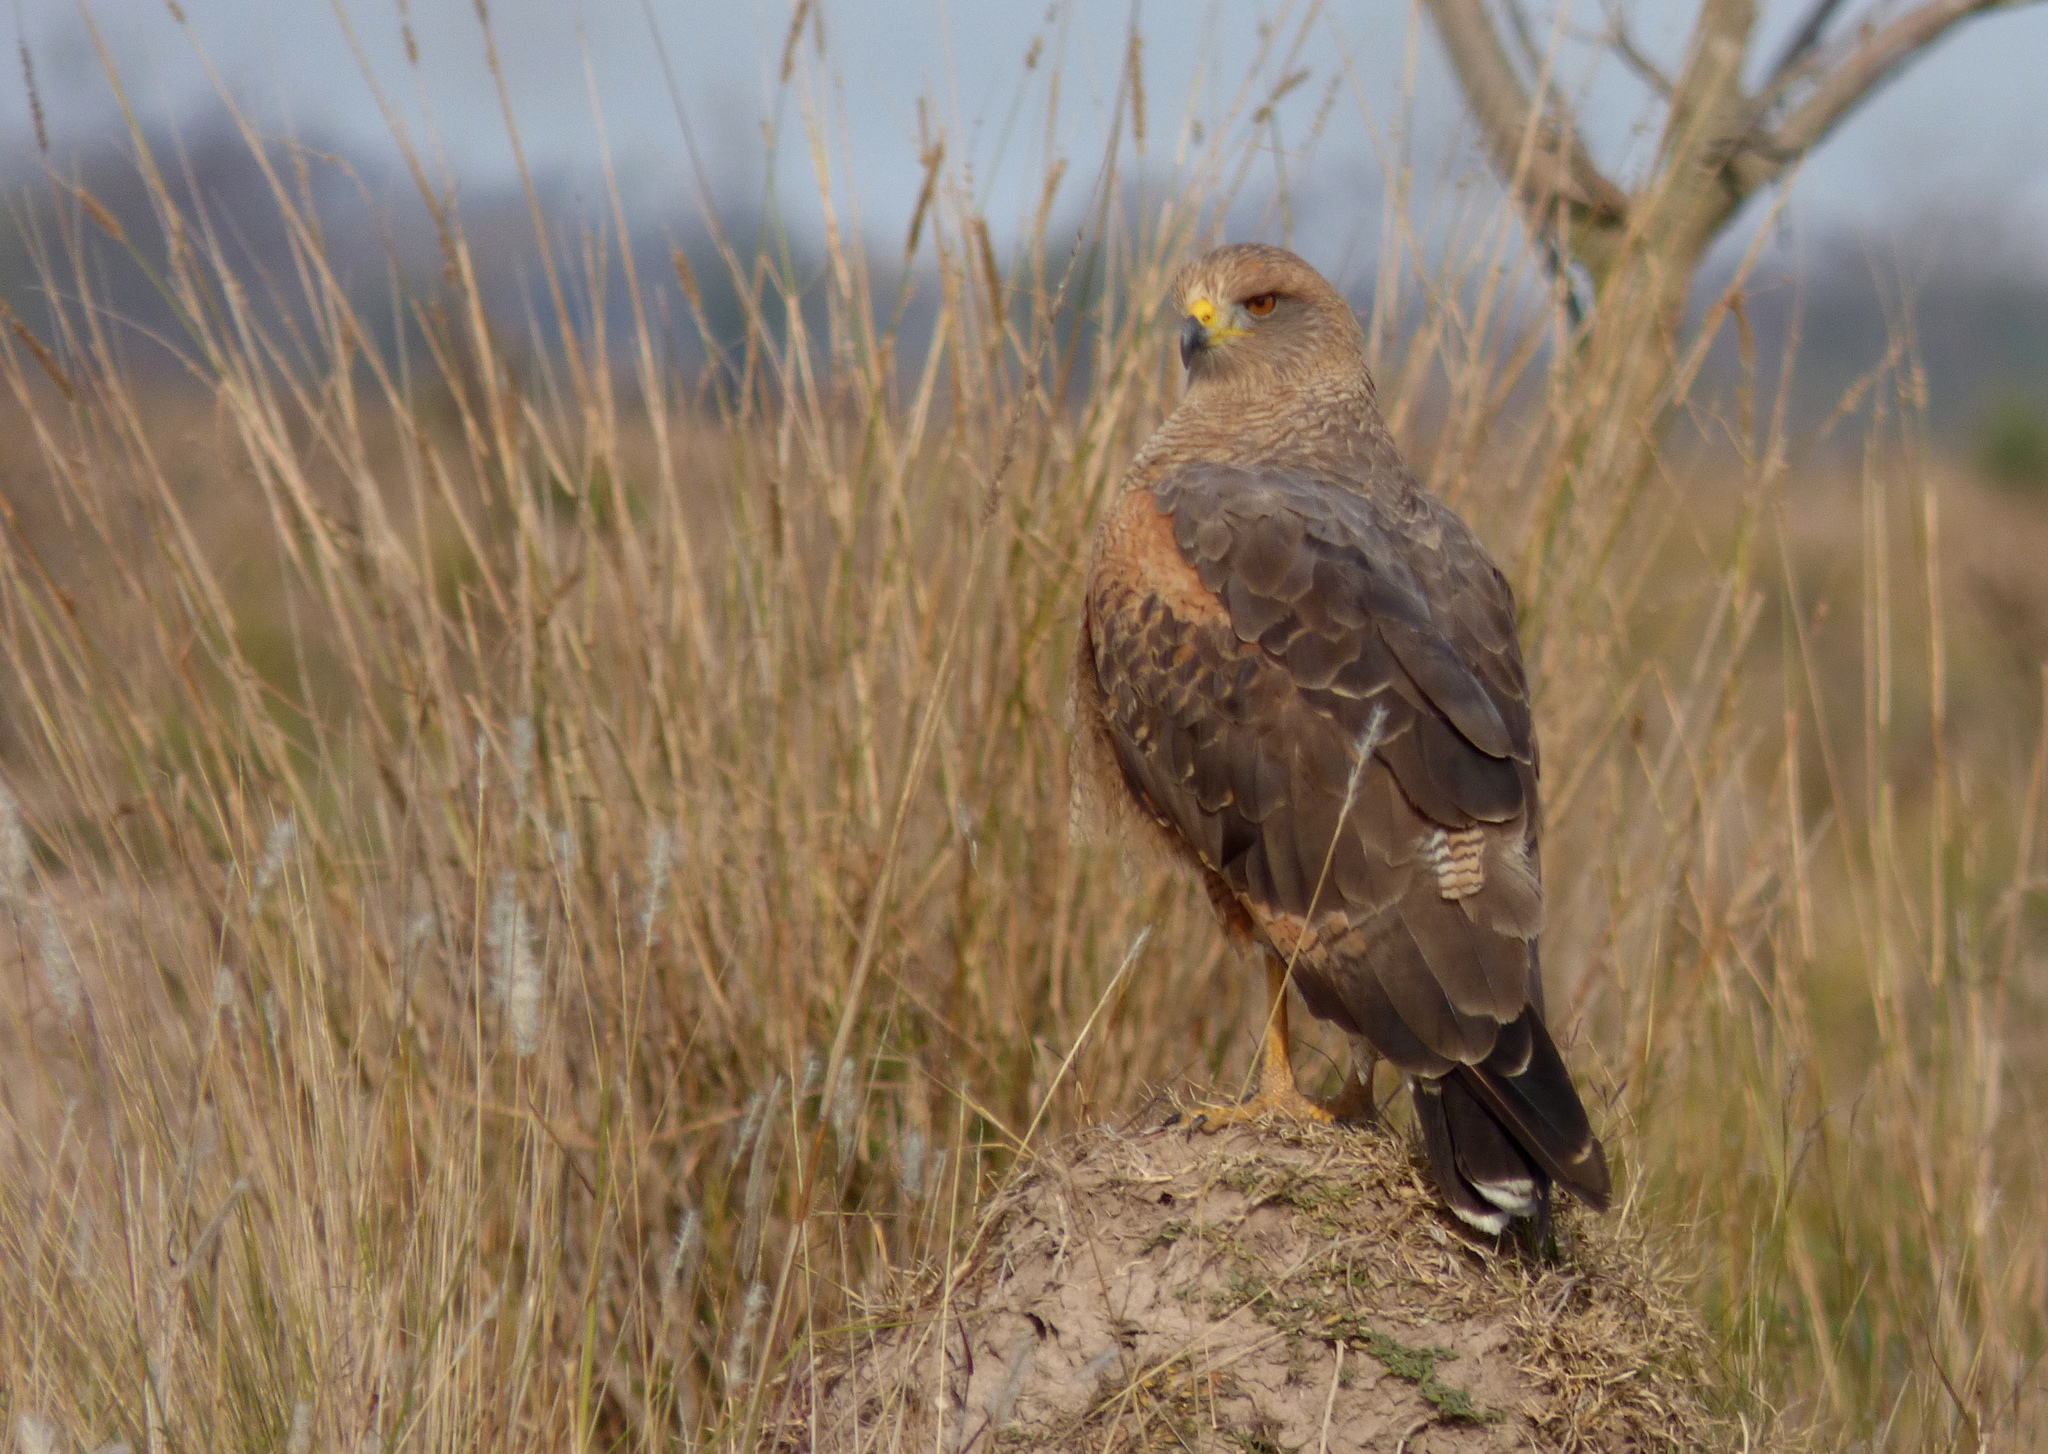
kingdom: Animalia
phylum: Chordata
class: Aves
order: Accipitriformes
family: Accipitridae
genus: Buteogallus
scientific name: Buteogallus meridionalis
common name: Savanna hawk
